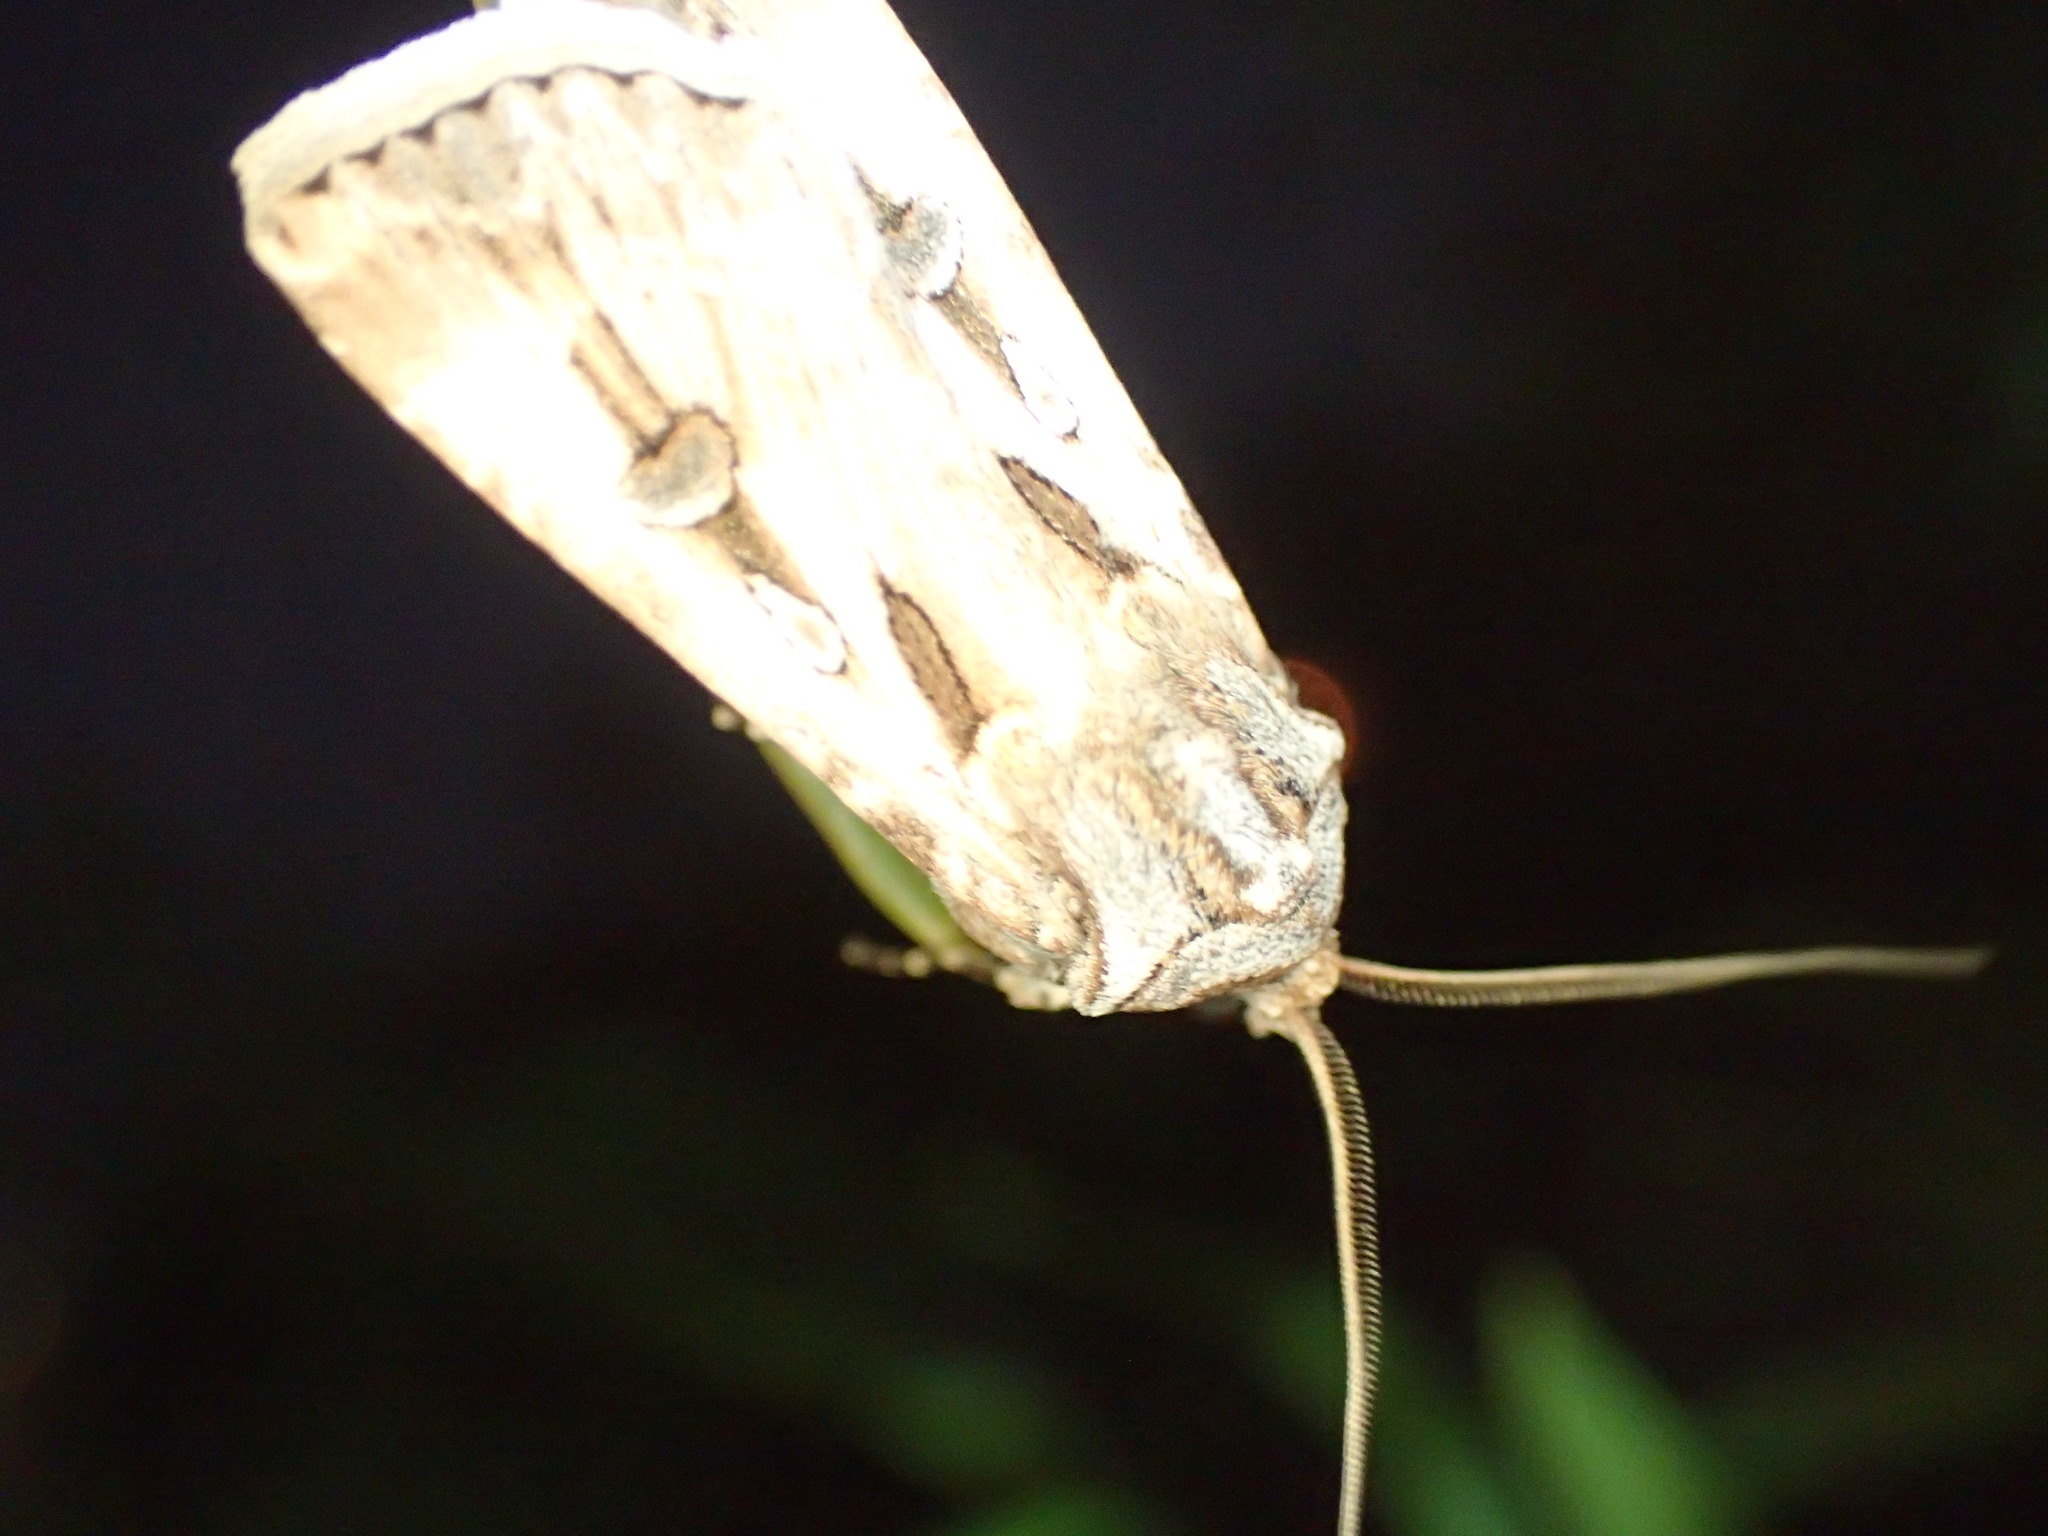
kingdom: Animalia
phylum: Arthropoda
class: Insecta
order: Lepidoptera
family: Noctuidae
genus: Agrotis
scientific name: Agrotis munda
